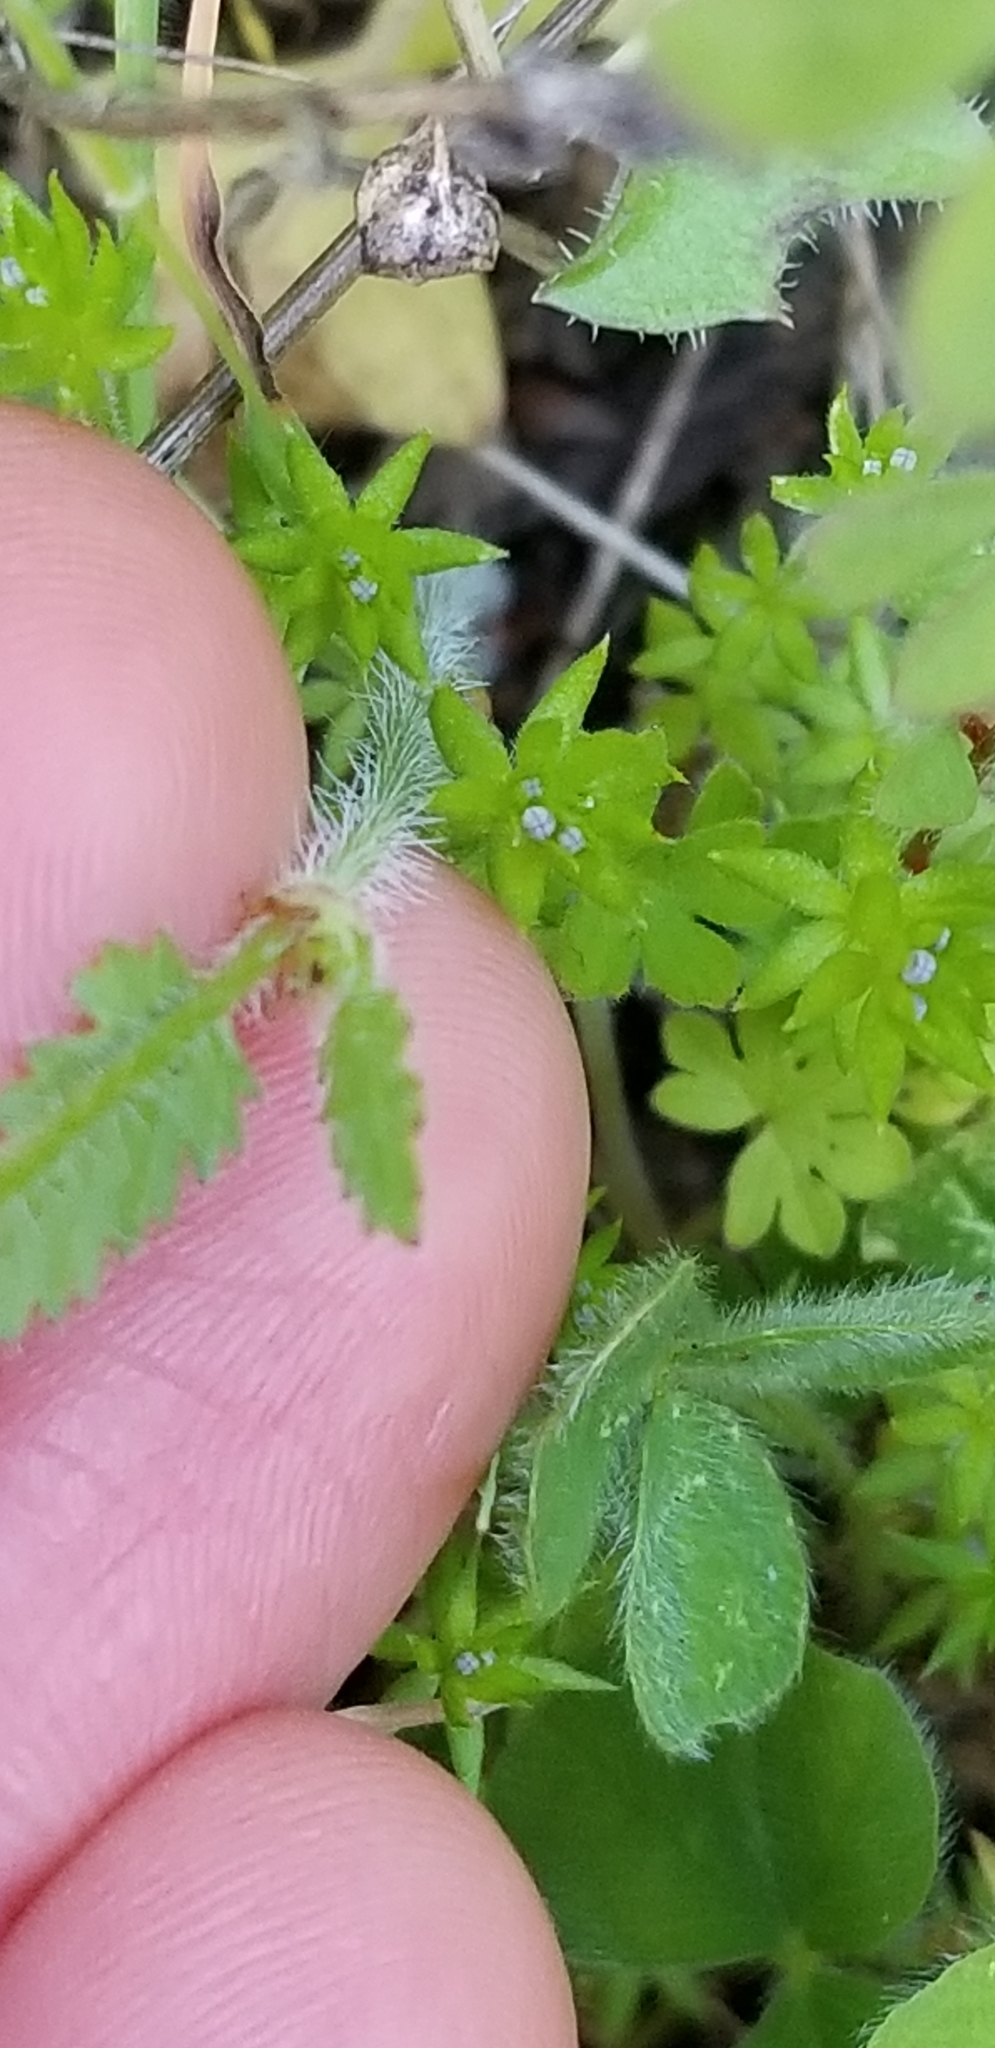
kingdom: Plantae
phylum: Tracheophyta
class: Magnoliopsida
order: Geraniales
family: Geraniaceae
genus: Erodium
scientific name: Erodium botrys
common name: Mediterranean stork's-bill
